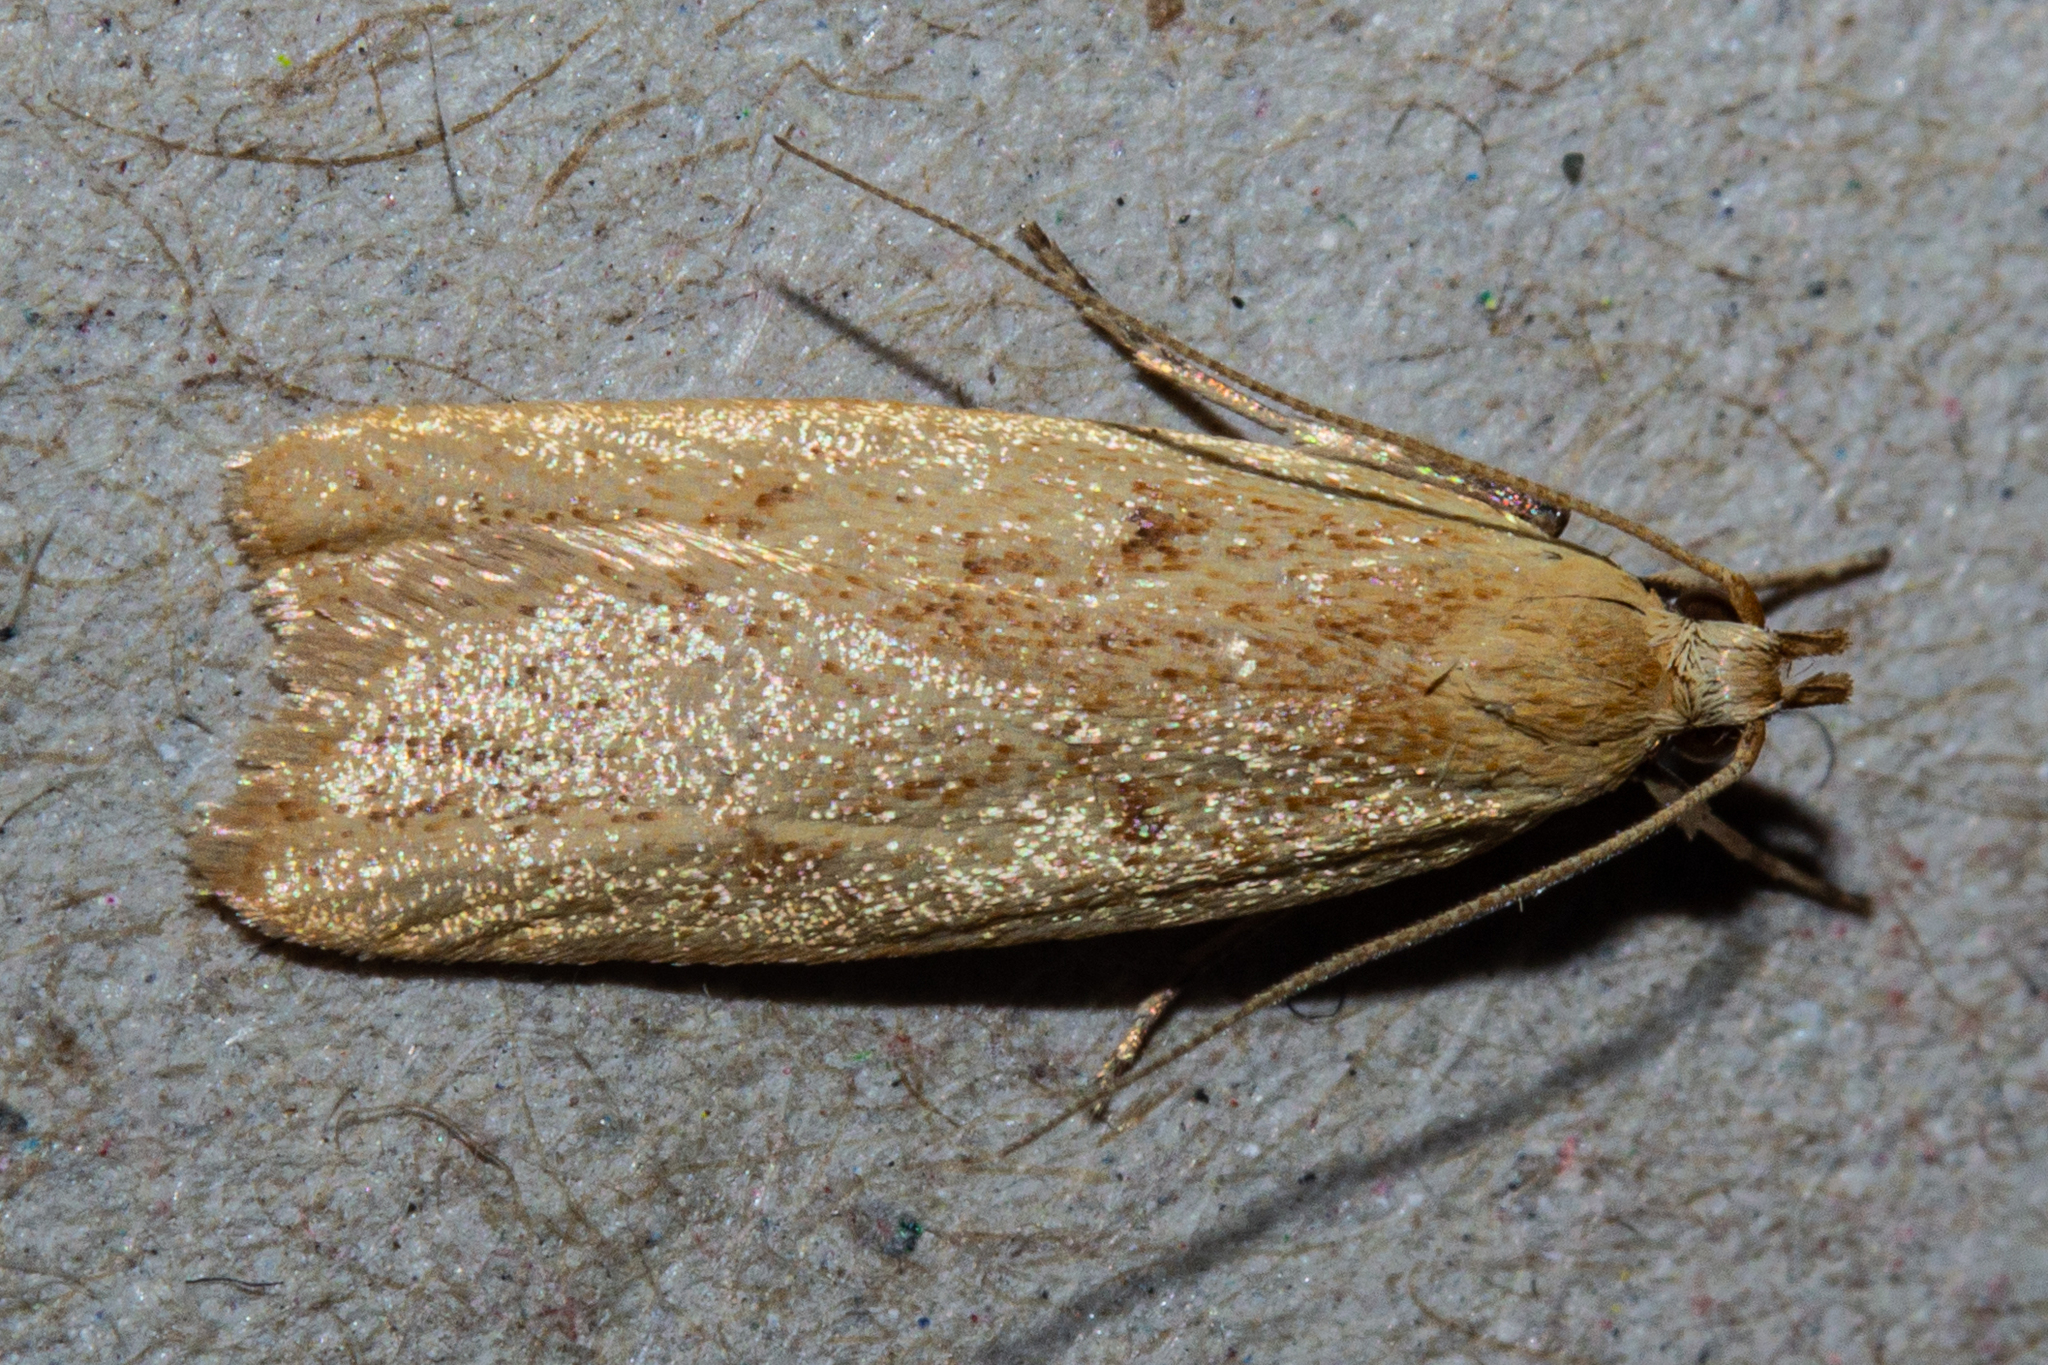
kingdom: Animalia
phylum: Arthropoda
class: Insecta
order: Lepidoptera
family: Oecophoridae
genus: Gymnobathra
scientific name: Gymnobathra sarcoxantha
